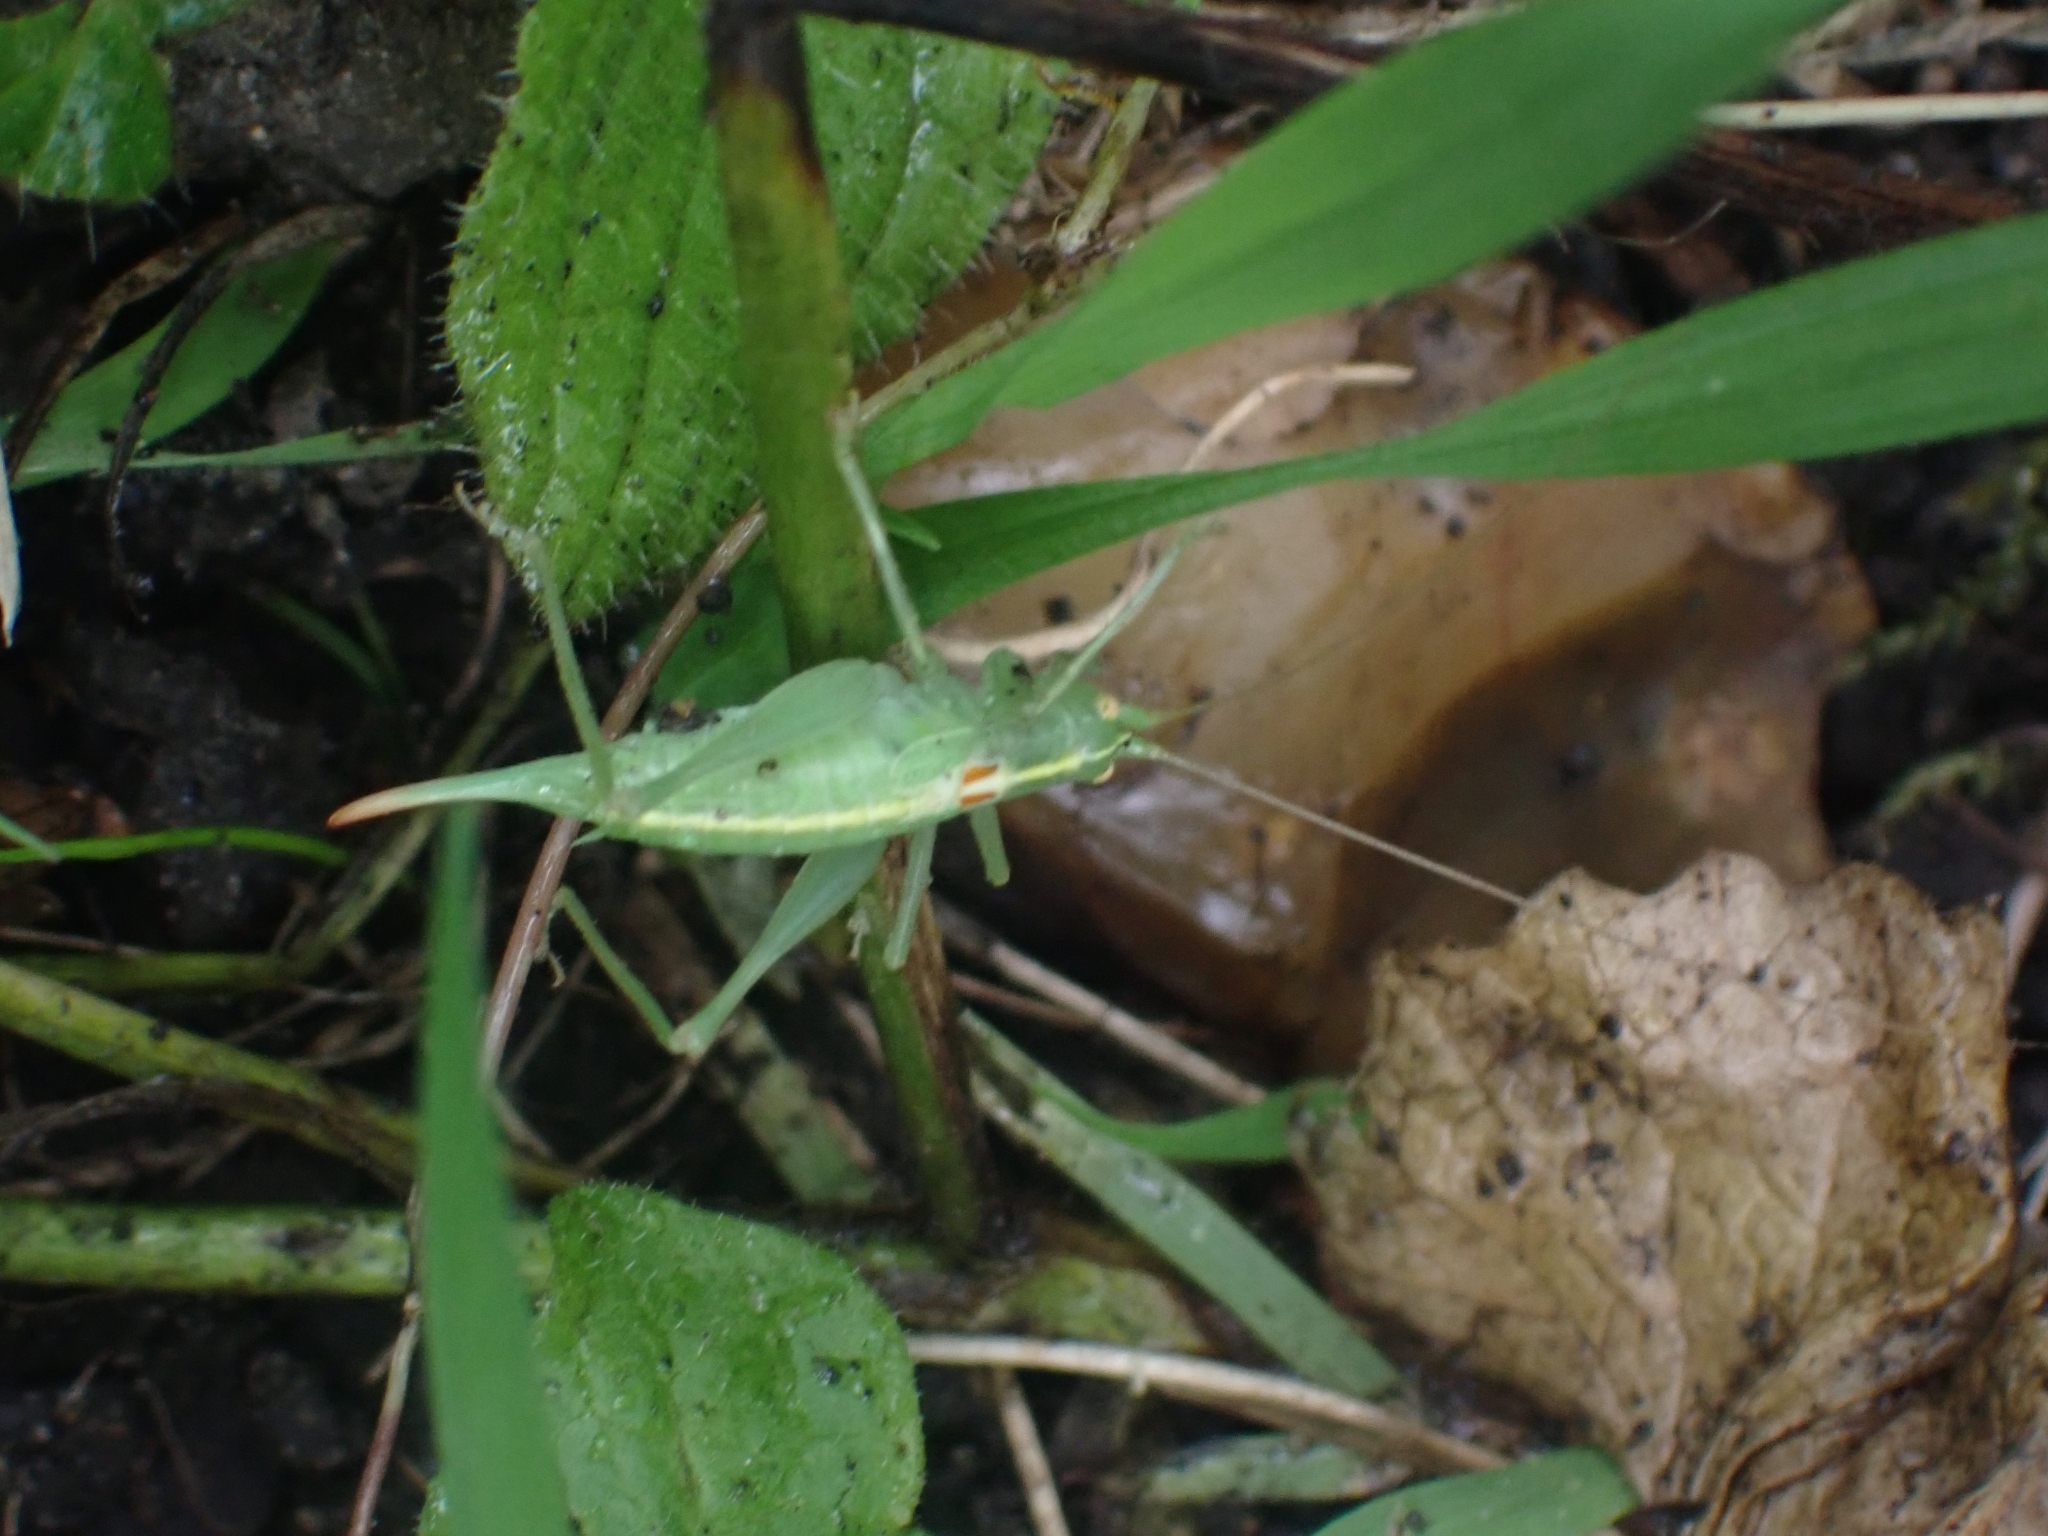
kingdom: Animalia
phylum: Arthropoda
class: Insecta
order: Orthoptera
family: Tettigoniidae
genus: Meconema
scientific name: Meconema meridionale
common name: Southern oak bush-cricket
